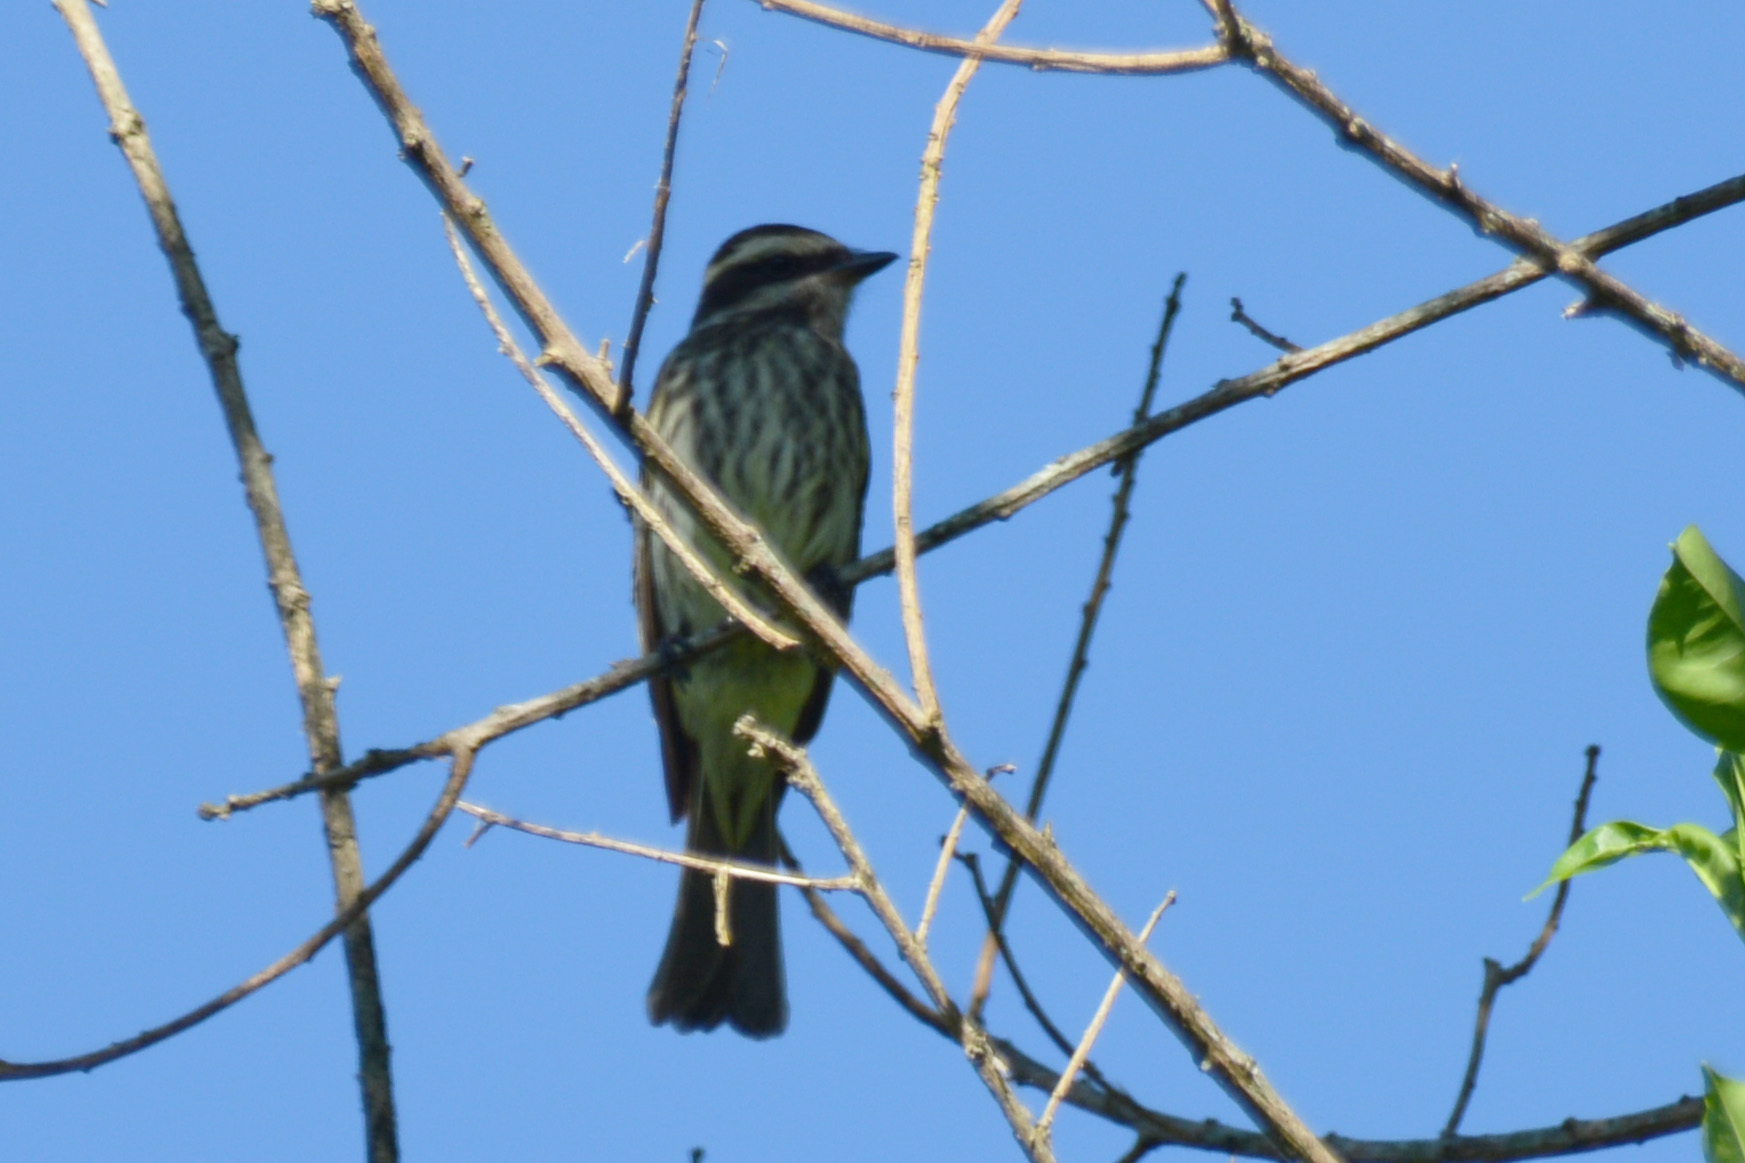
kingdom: Animalia
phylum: Chordata
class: Aves
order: Passeriformes
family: Tyrannidae
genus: Empidonomus
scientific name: Empidonomus varius
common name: Variegated flycatcher
